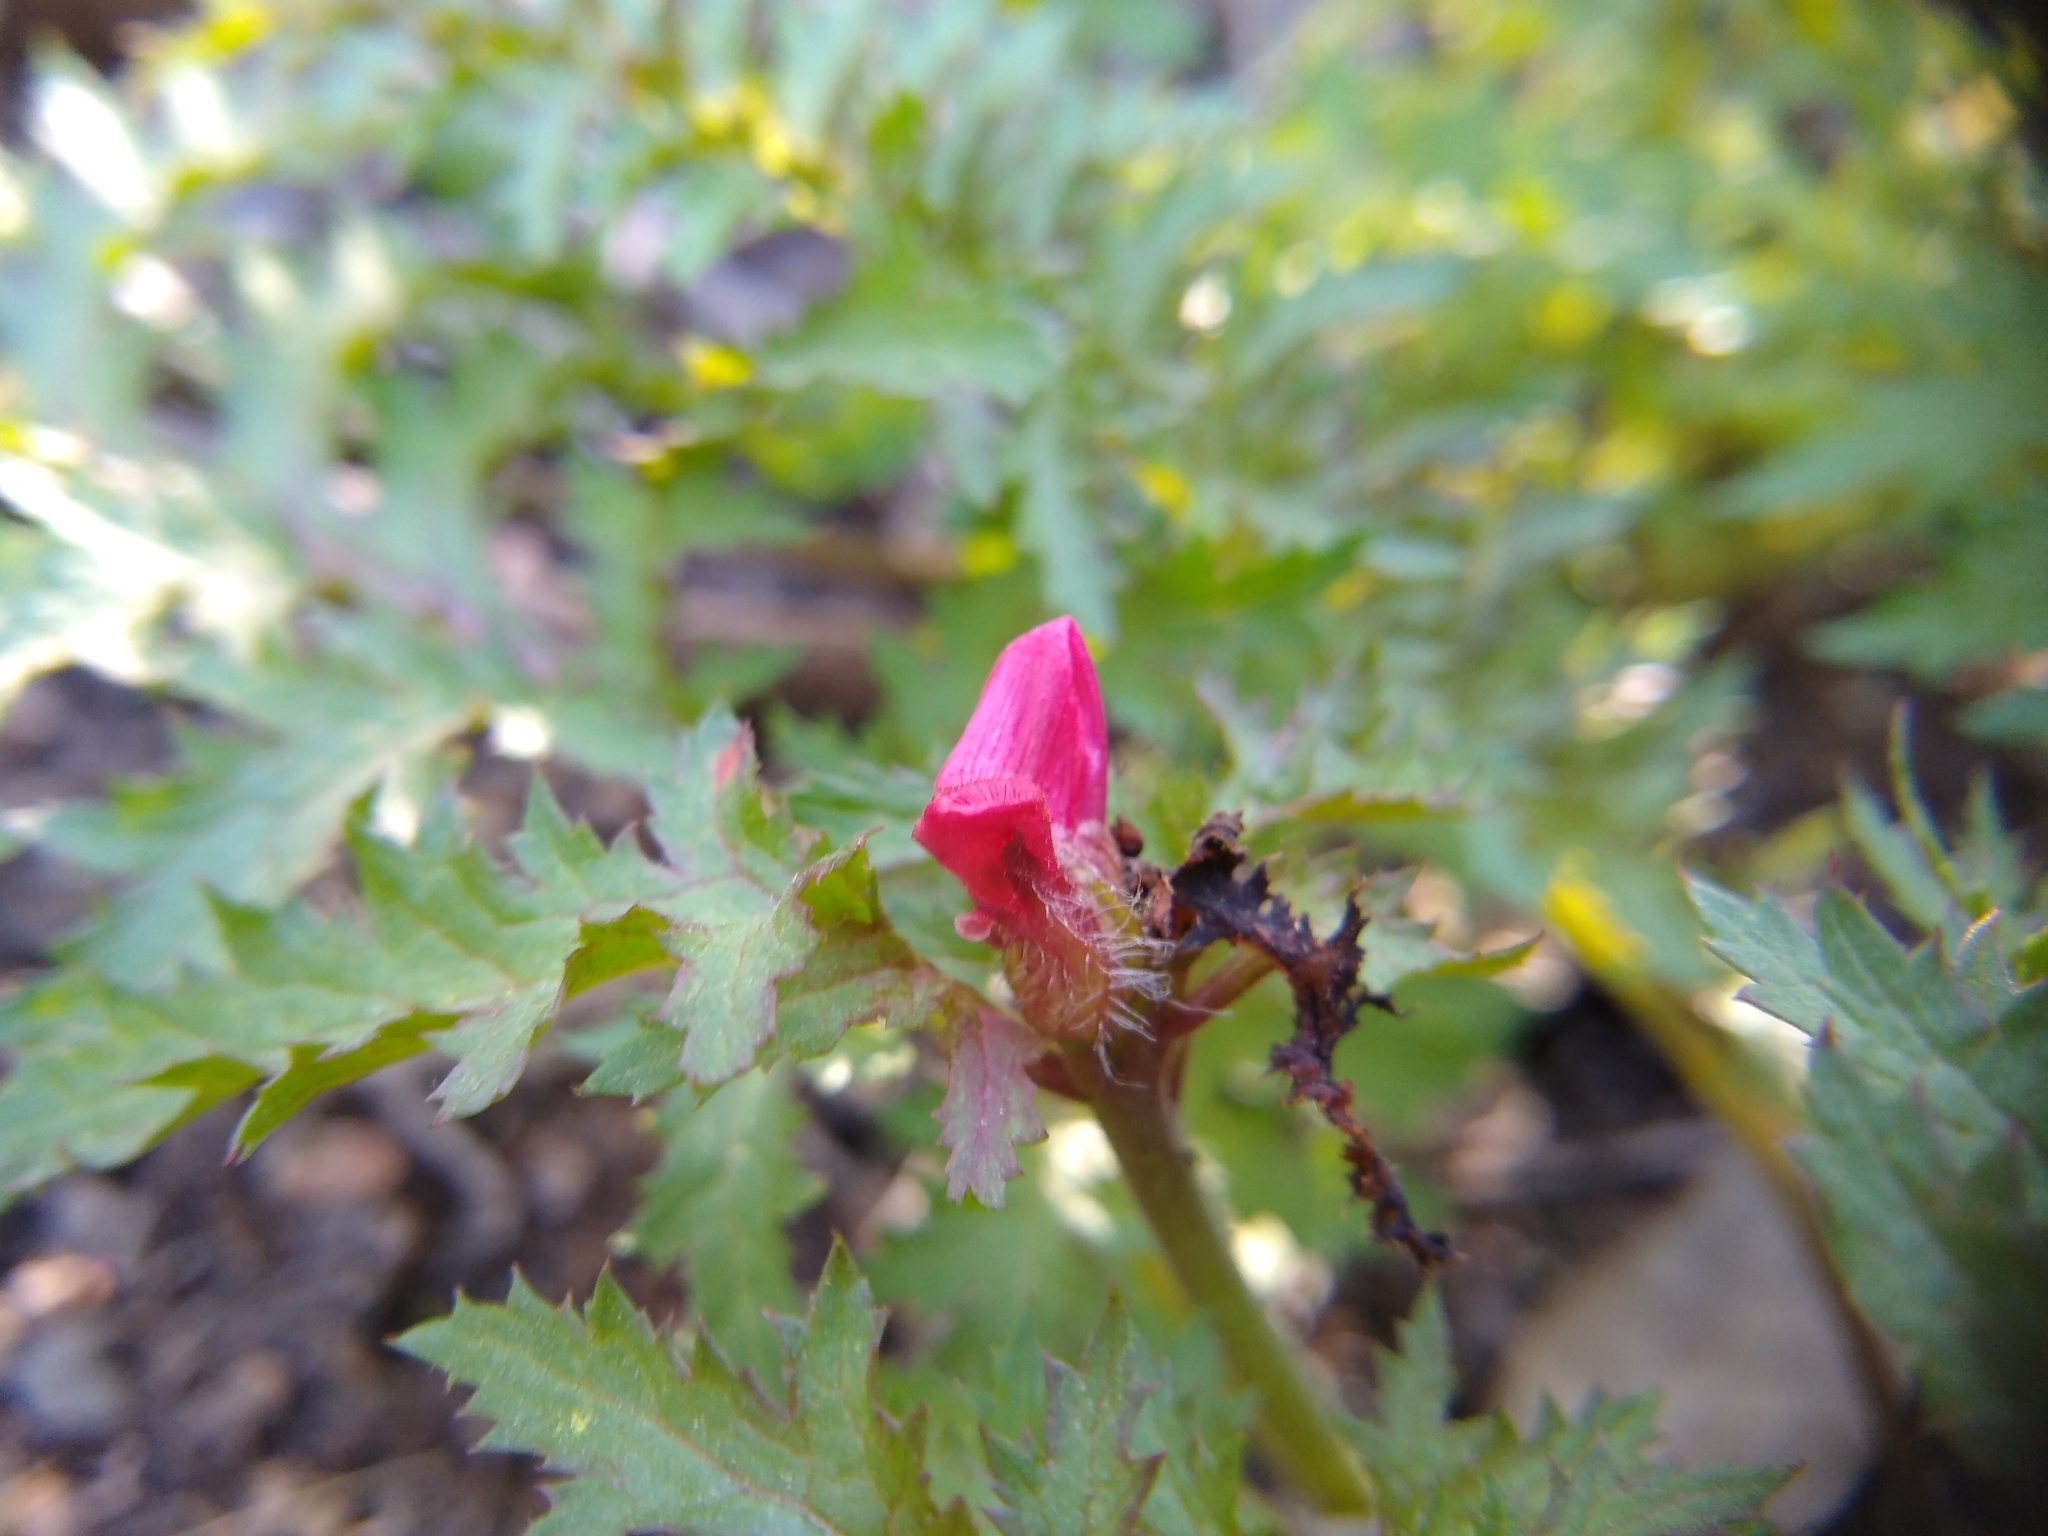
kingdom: Plantae
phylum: Tracheophyta
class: Magnoliopsida
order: Lamiales
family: Orobanchaceae
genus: Pedicularis
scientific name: Pedicularis densiflora
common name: Indian warrior
